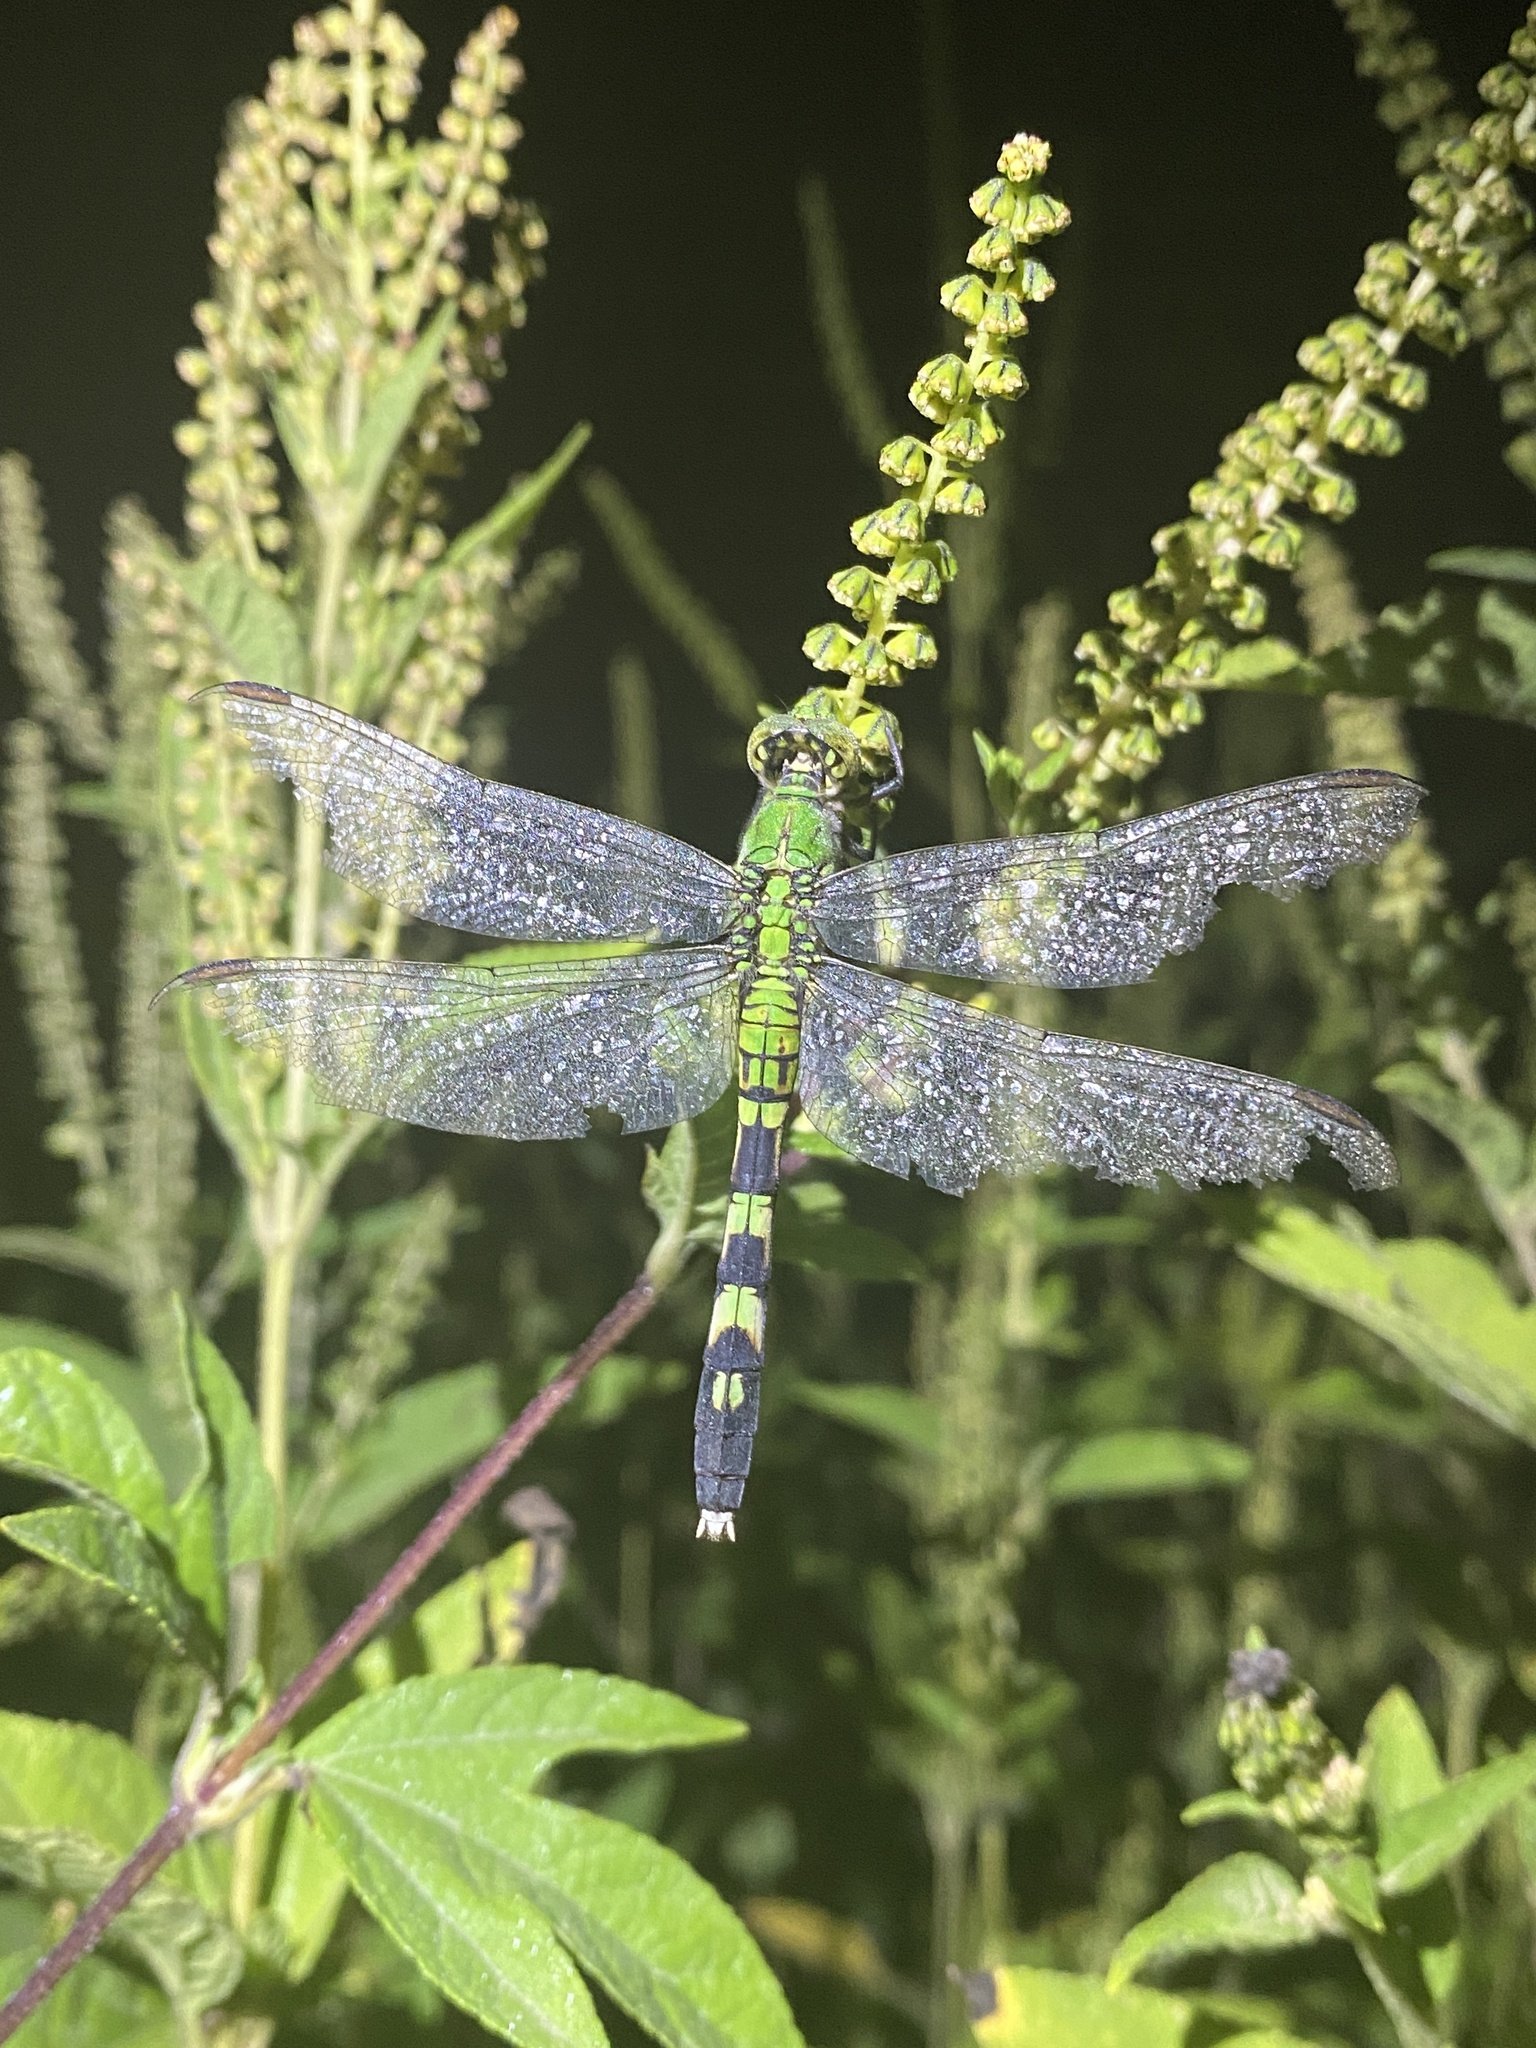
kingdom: Animalia
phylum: Arthropoda
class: Insecta
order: Odonata
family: Libellulidae
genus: Erythemis
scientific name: Erythemis simplicicollis
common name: Eastern pondhawk
